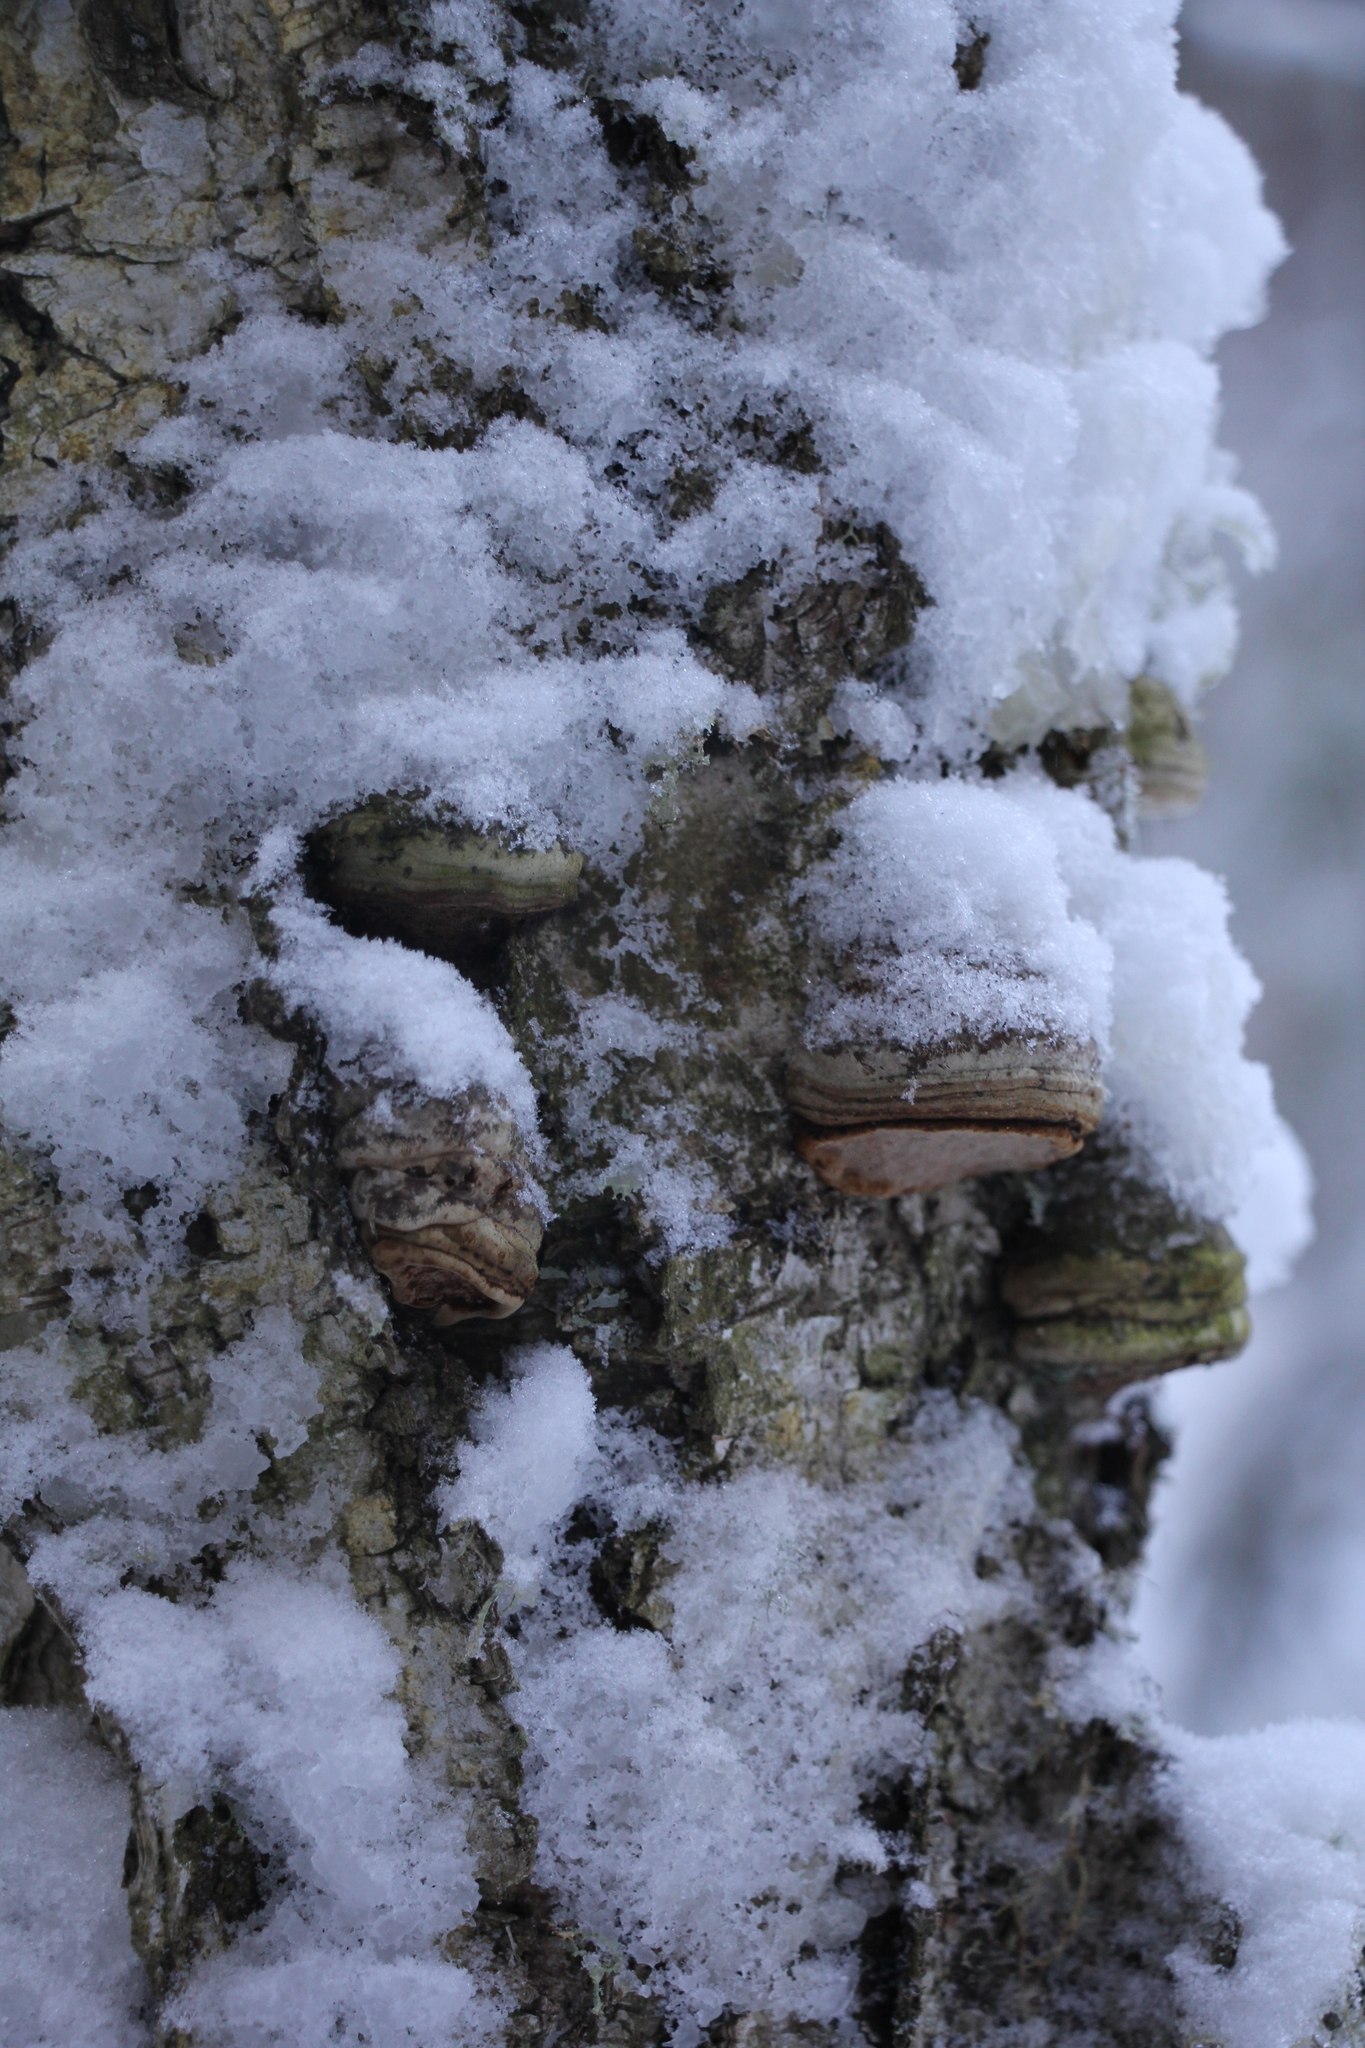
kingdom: Fungi
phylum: Basidiomycota
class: Agaricomycetes
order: Polyporales
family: Polyporaceae
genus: Fomes
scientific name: Fomes fomentarius
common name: Hoof fungus
